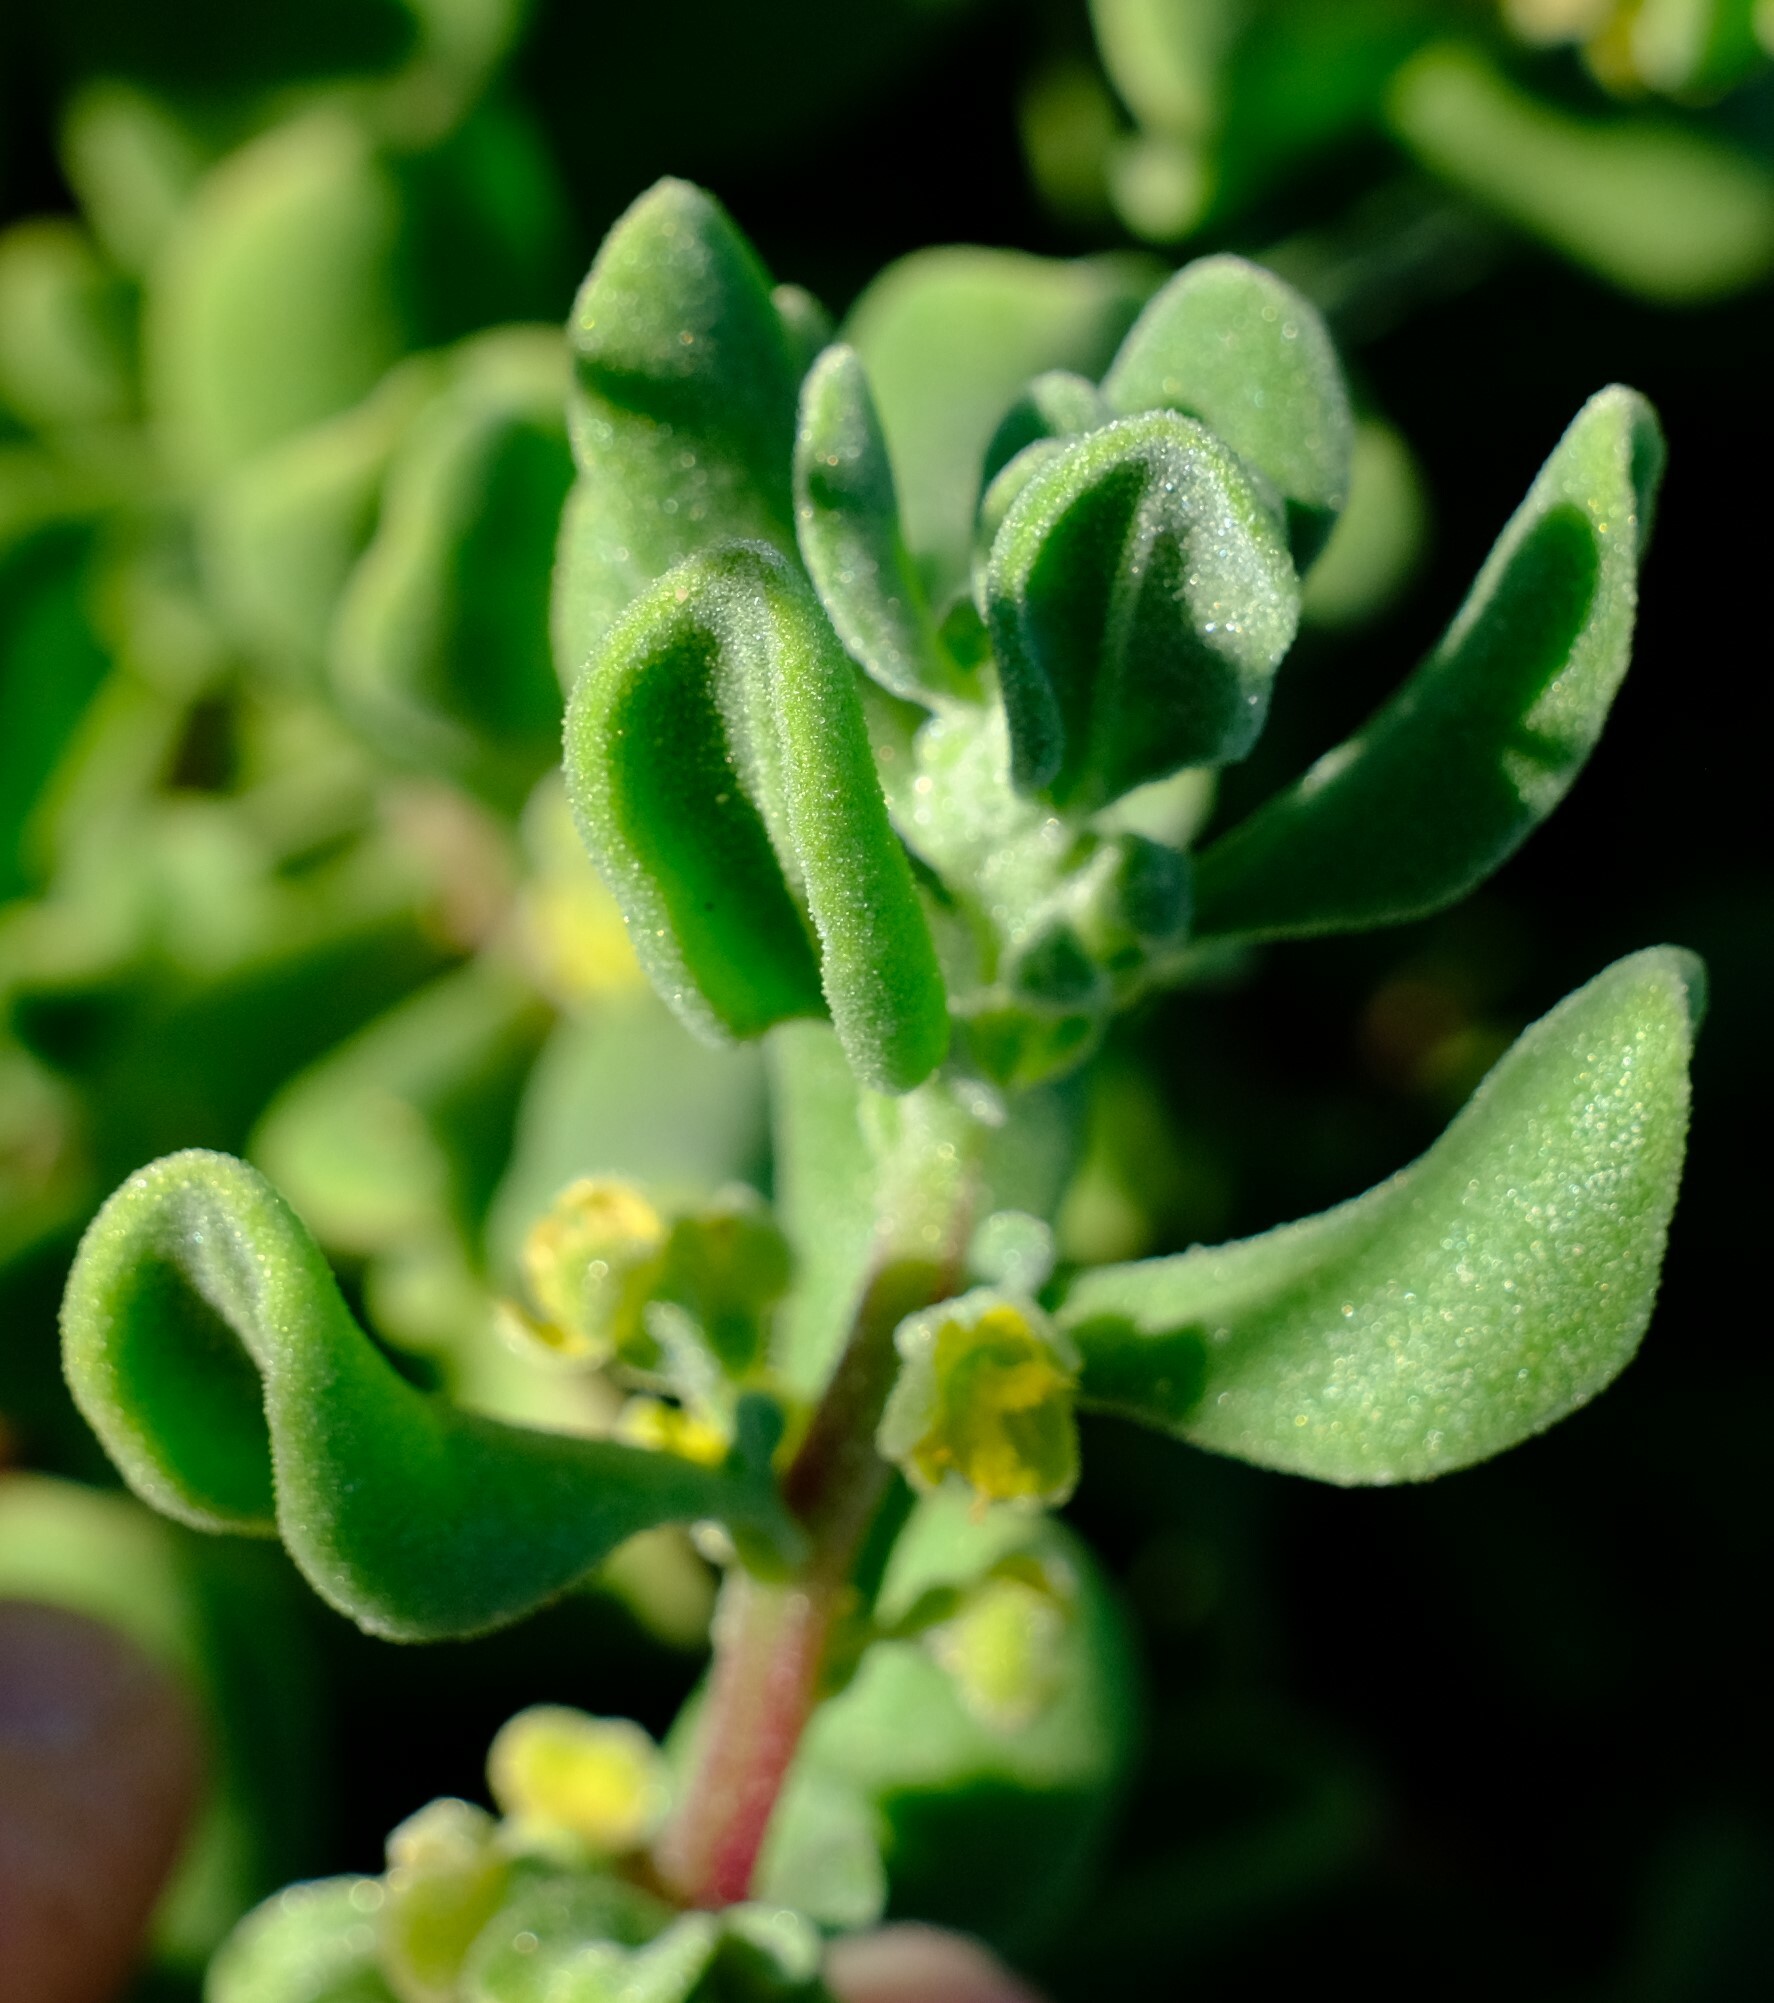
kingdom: Plantae
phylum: Tracheophyta
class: Magnoliopsida
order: Caryophyllales
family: Aizoaceae
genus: Tetragonia
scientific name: Tetragonia decumbens
